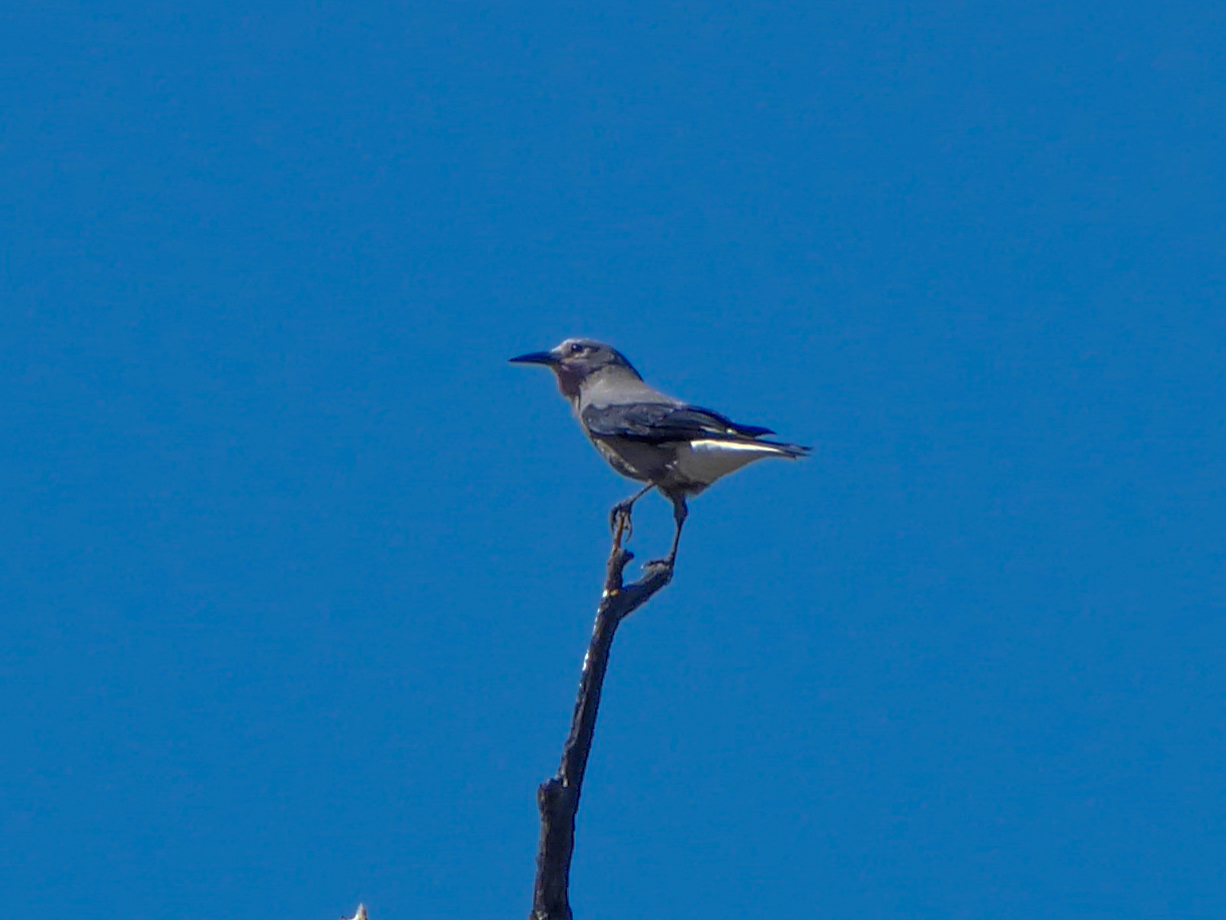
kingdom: Animalia
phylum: Chordata
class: Aves
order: Passeriformes
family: Corvidae
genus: Nucifraga
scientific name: Nucifraga columbiana
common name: Clark's nutcracker
